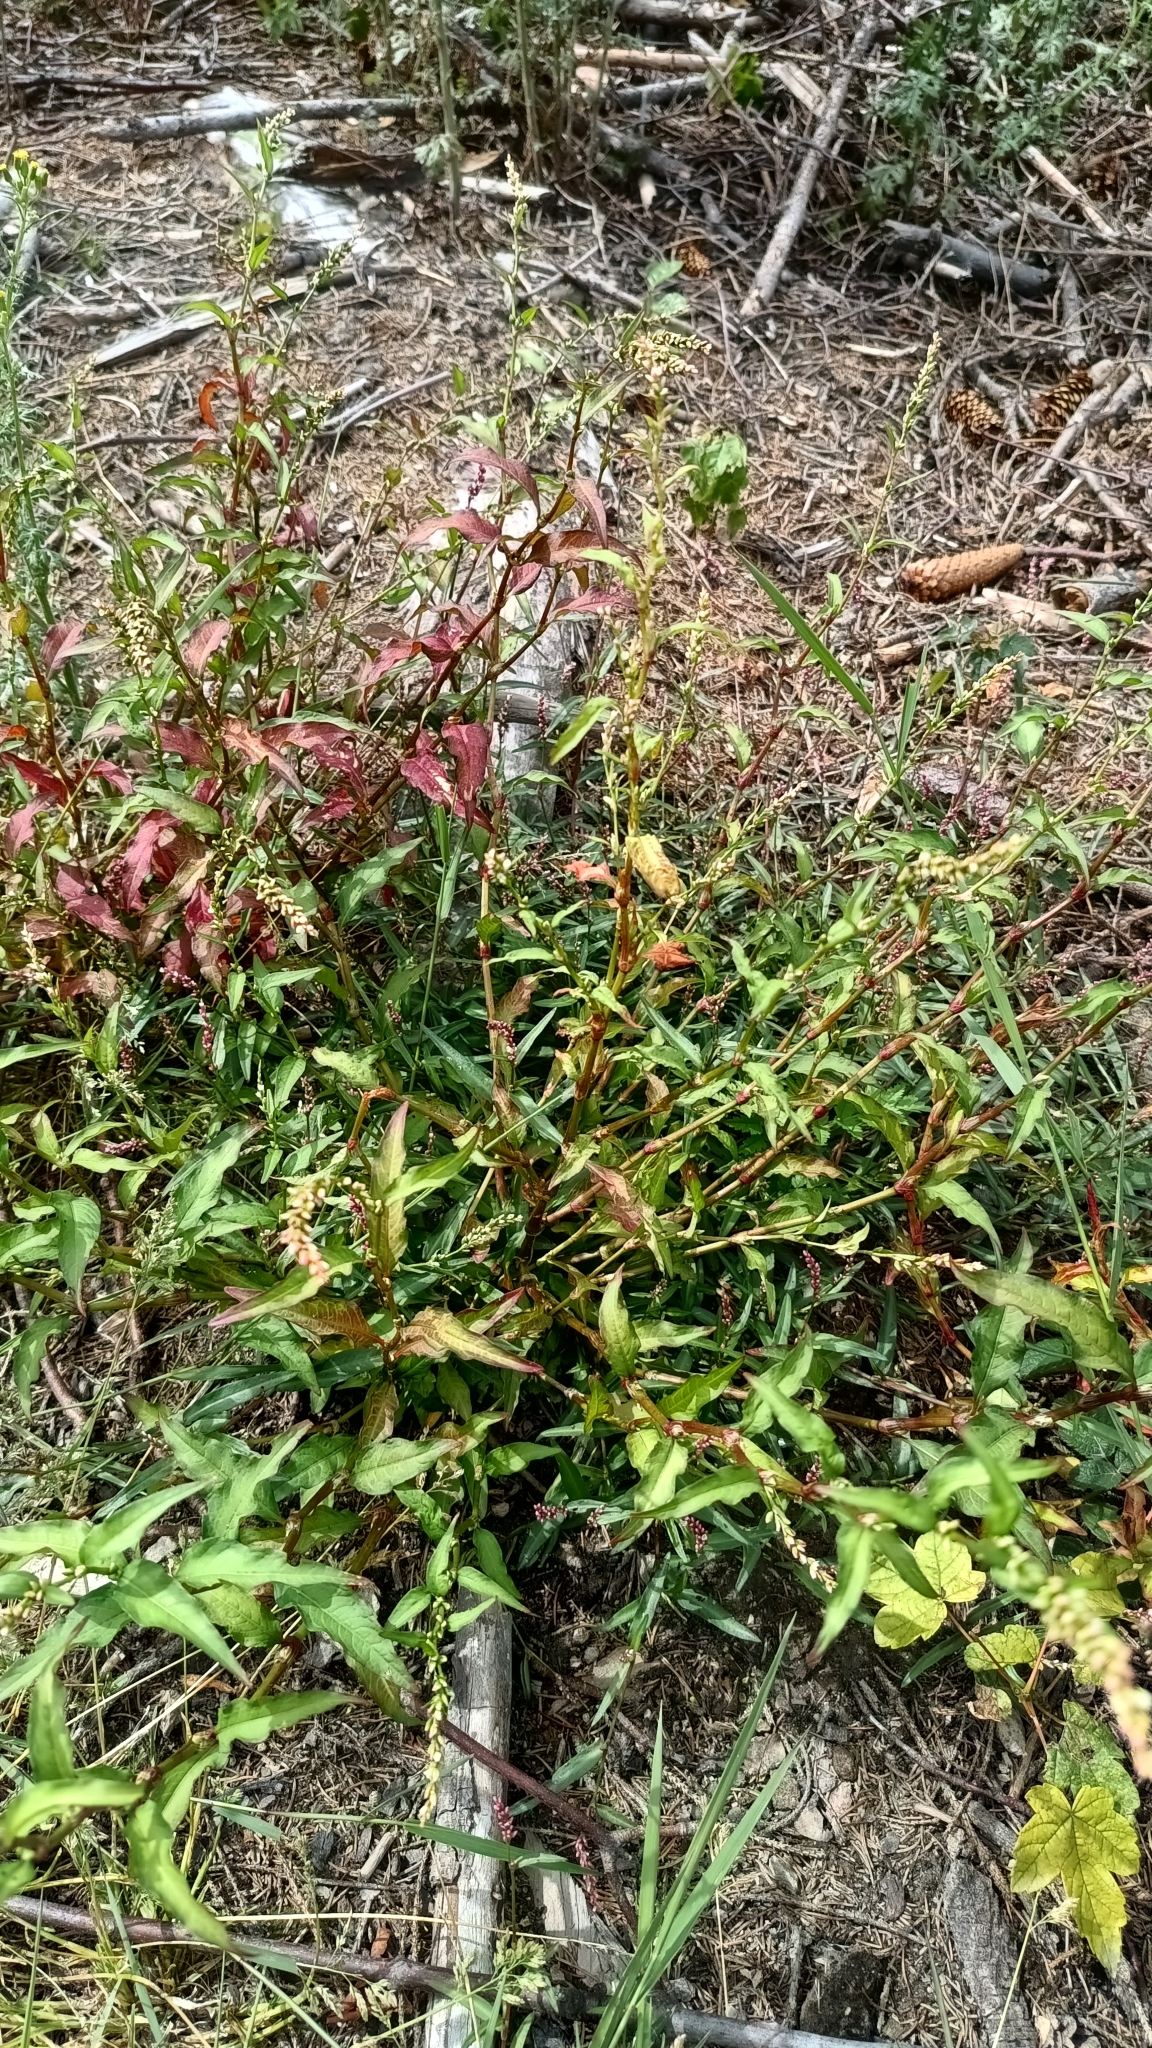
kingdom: Plantae
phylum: Tracheophyta
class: Magnoliopsida
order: Caryophyllales
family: Polygonaceae
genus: Persicaria
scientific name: Persicaria hydropiper
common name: Water-pepper
